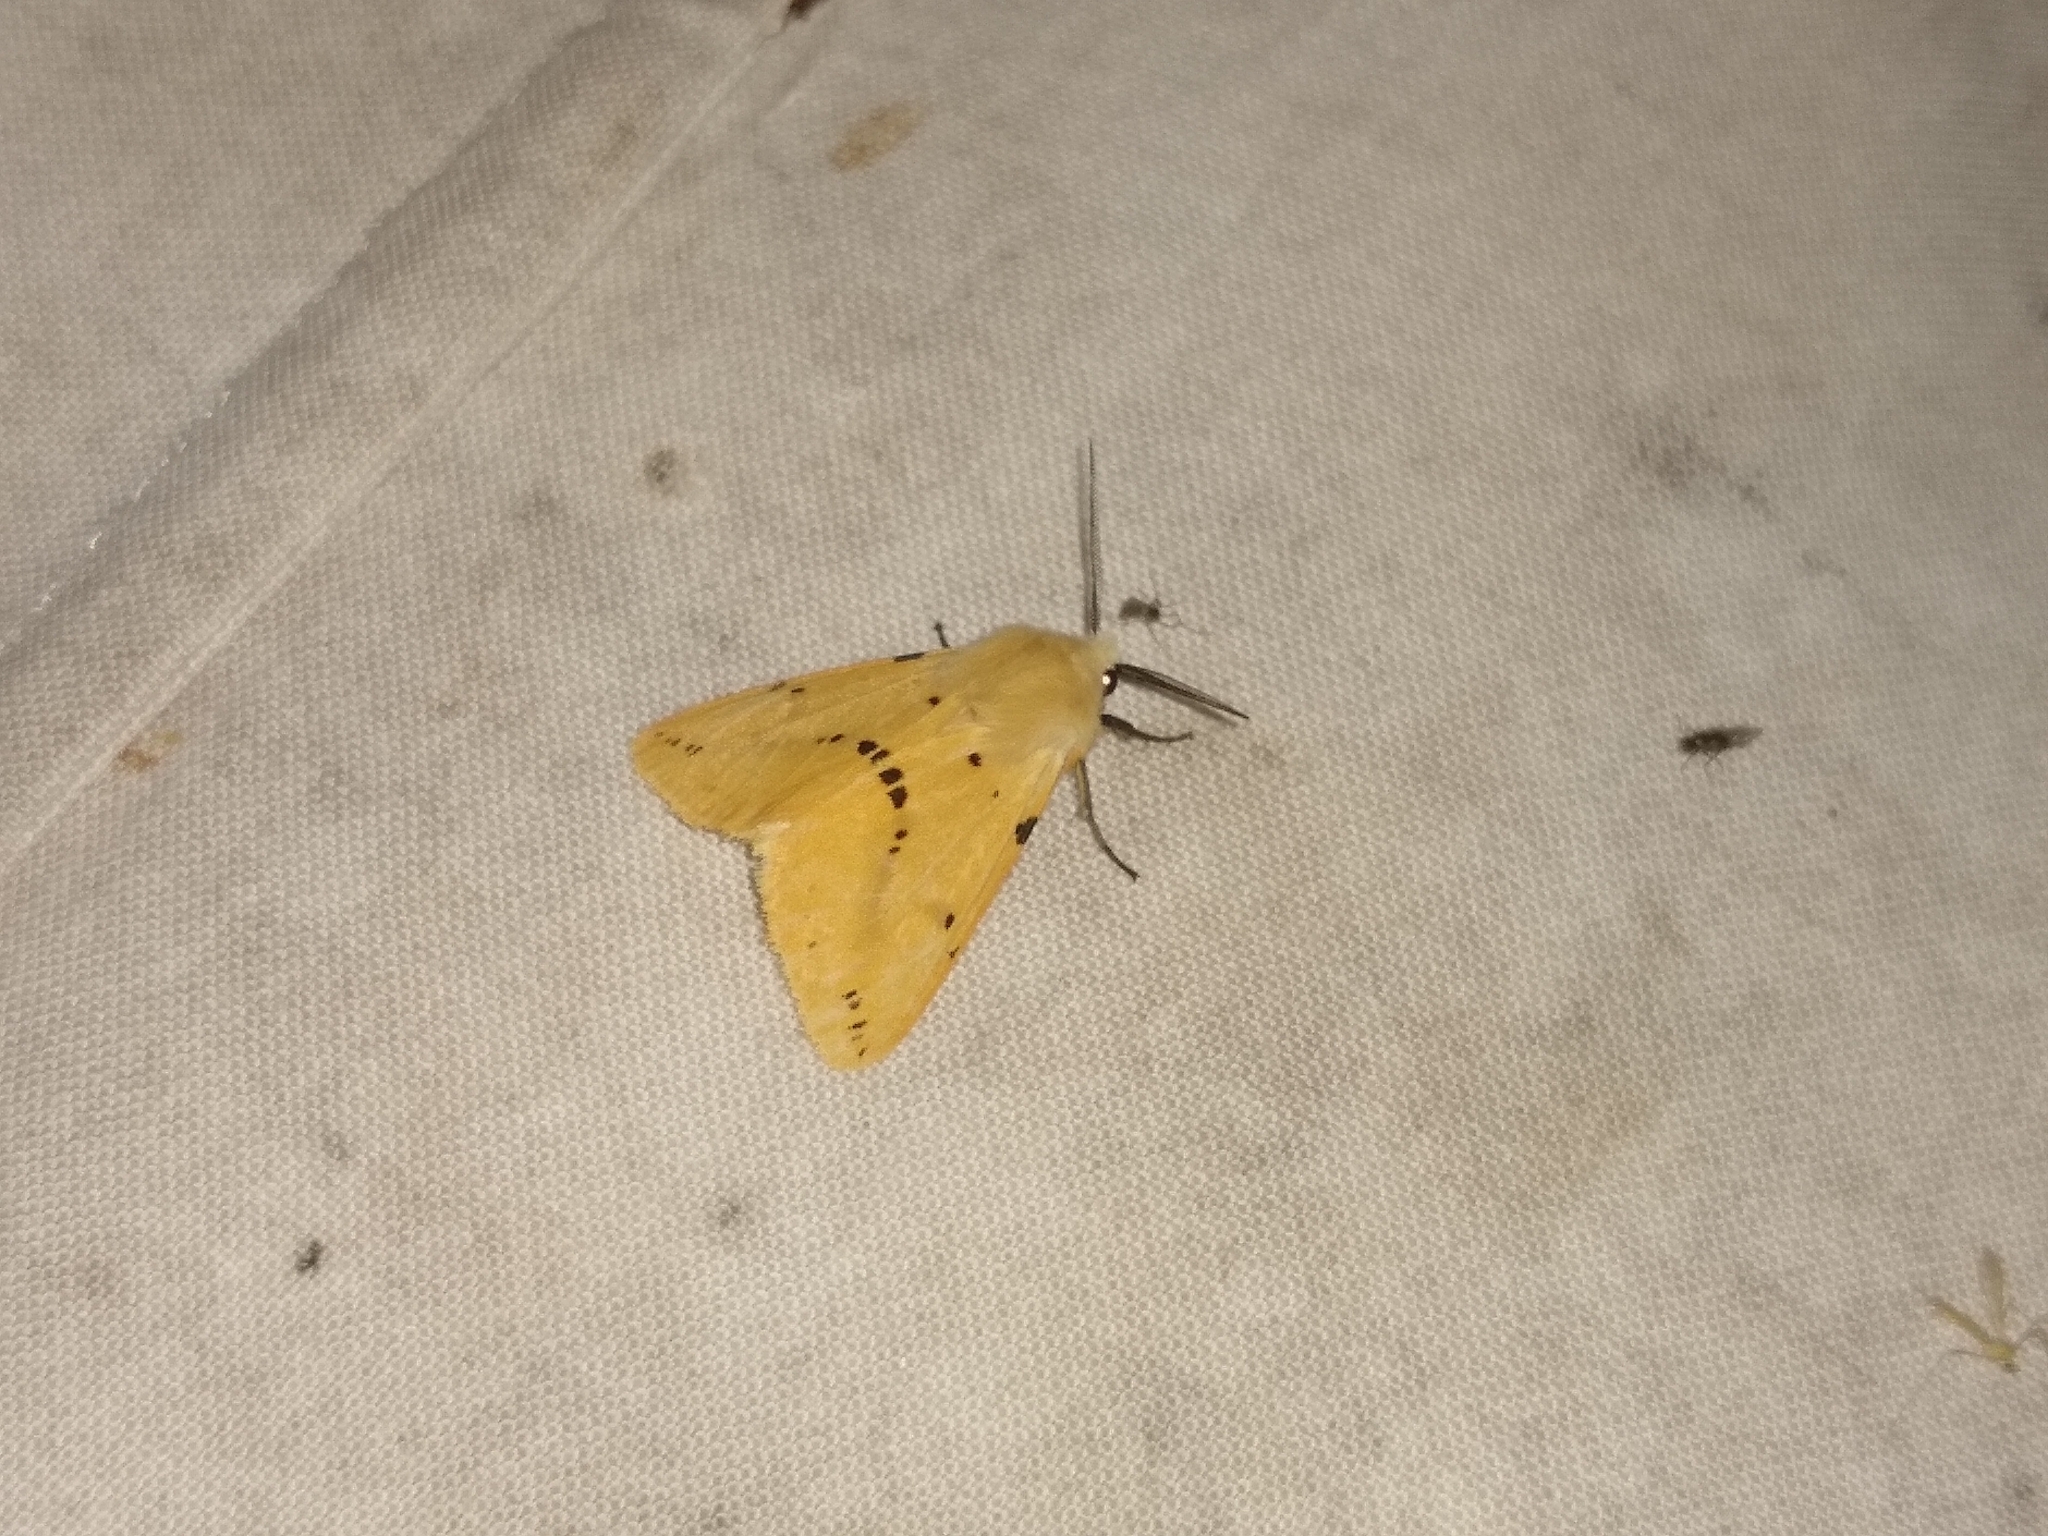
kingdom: Animalia
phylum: Arthropoda
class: Insecta
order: Lepidoptera
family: Erebidae
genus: Spilarctia
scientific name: Spilarctia lutea
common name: Buff ermine
